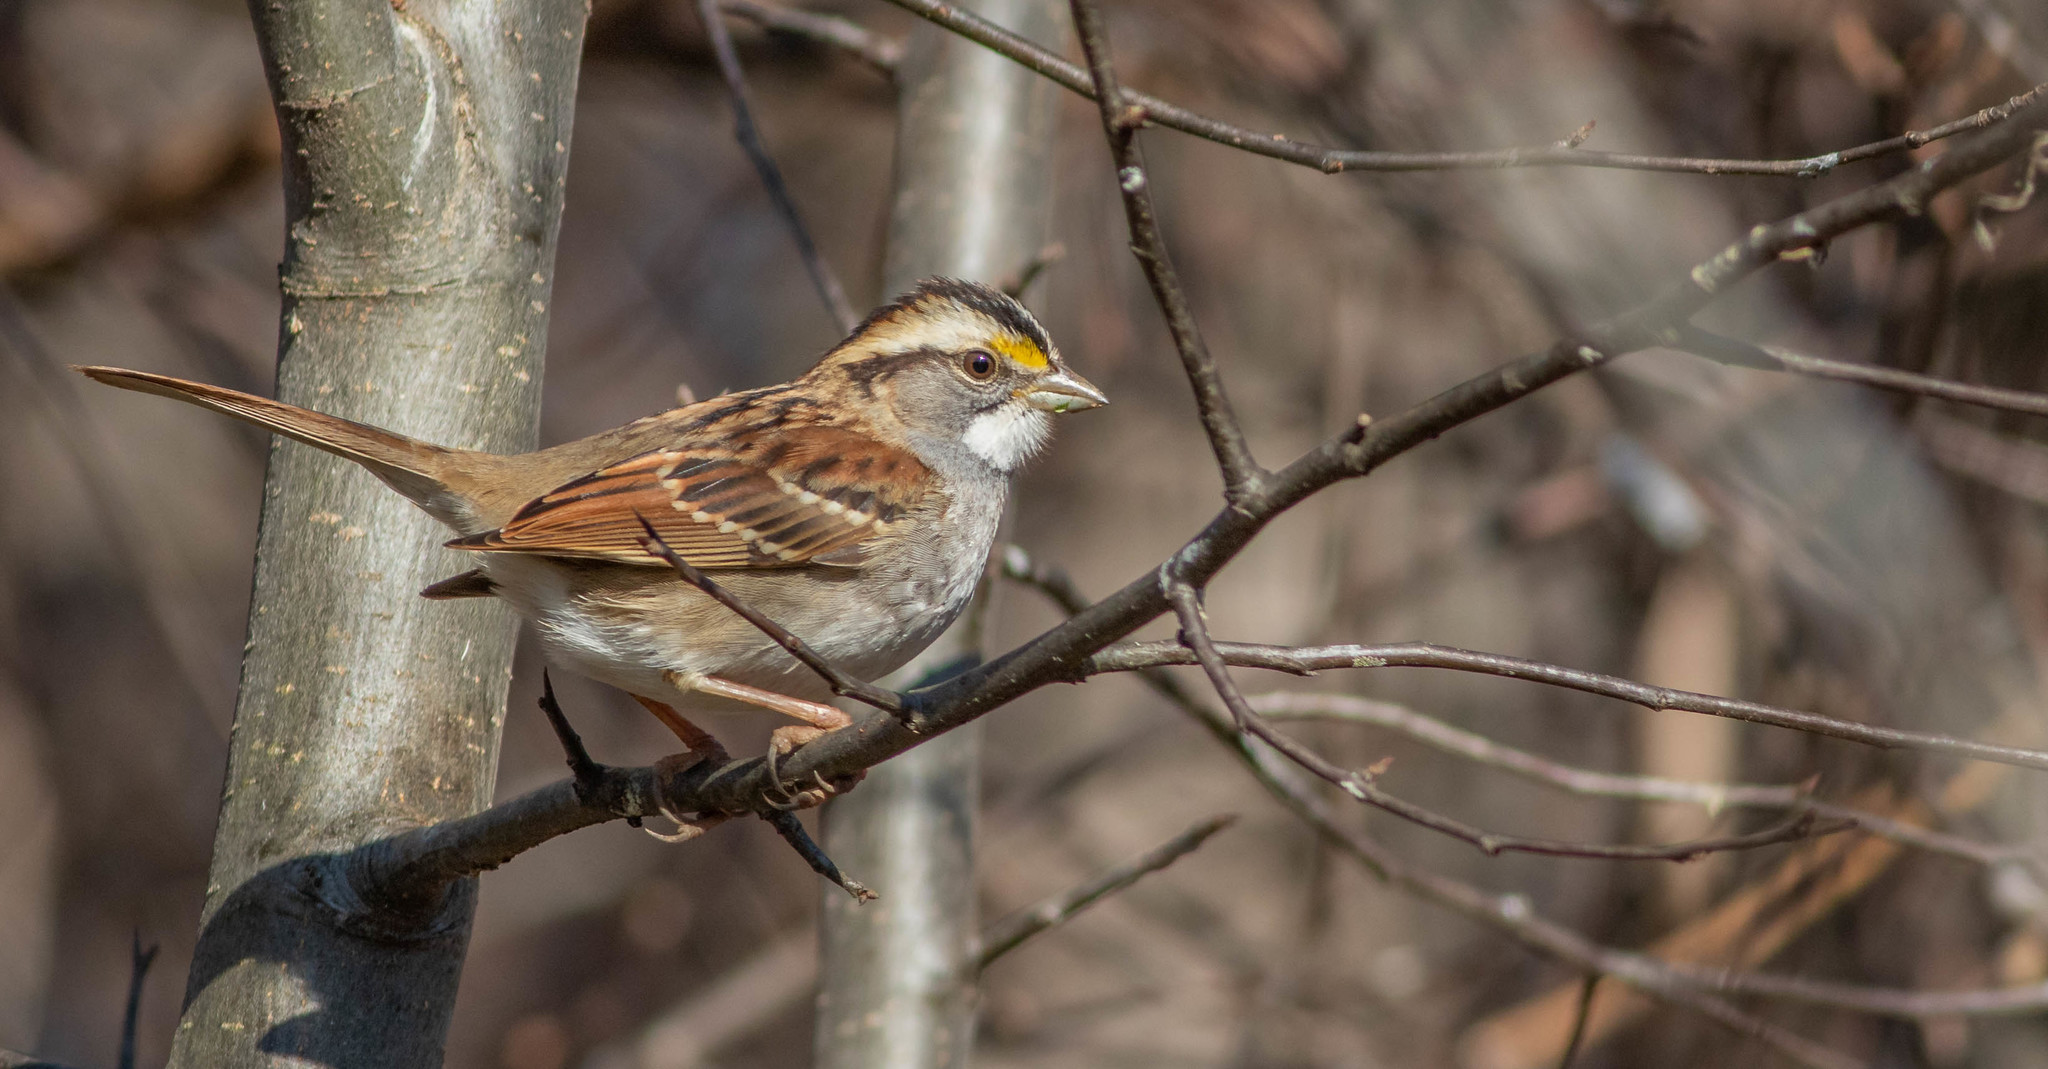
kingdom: Animalia
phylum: Chordata
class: Aves
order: Passeriformes
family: Passerellidae
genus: Zonotrichia
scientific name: Zonotrichia albicollis
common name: White-throated sparrow
